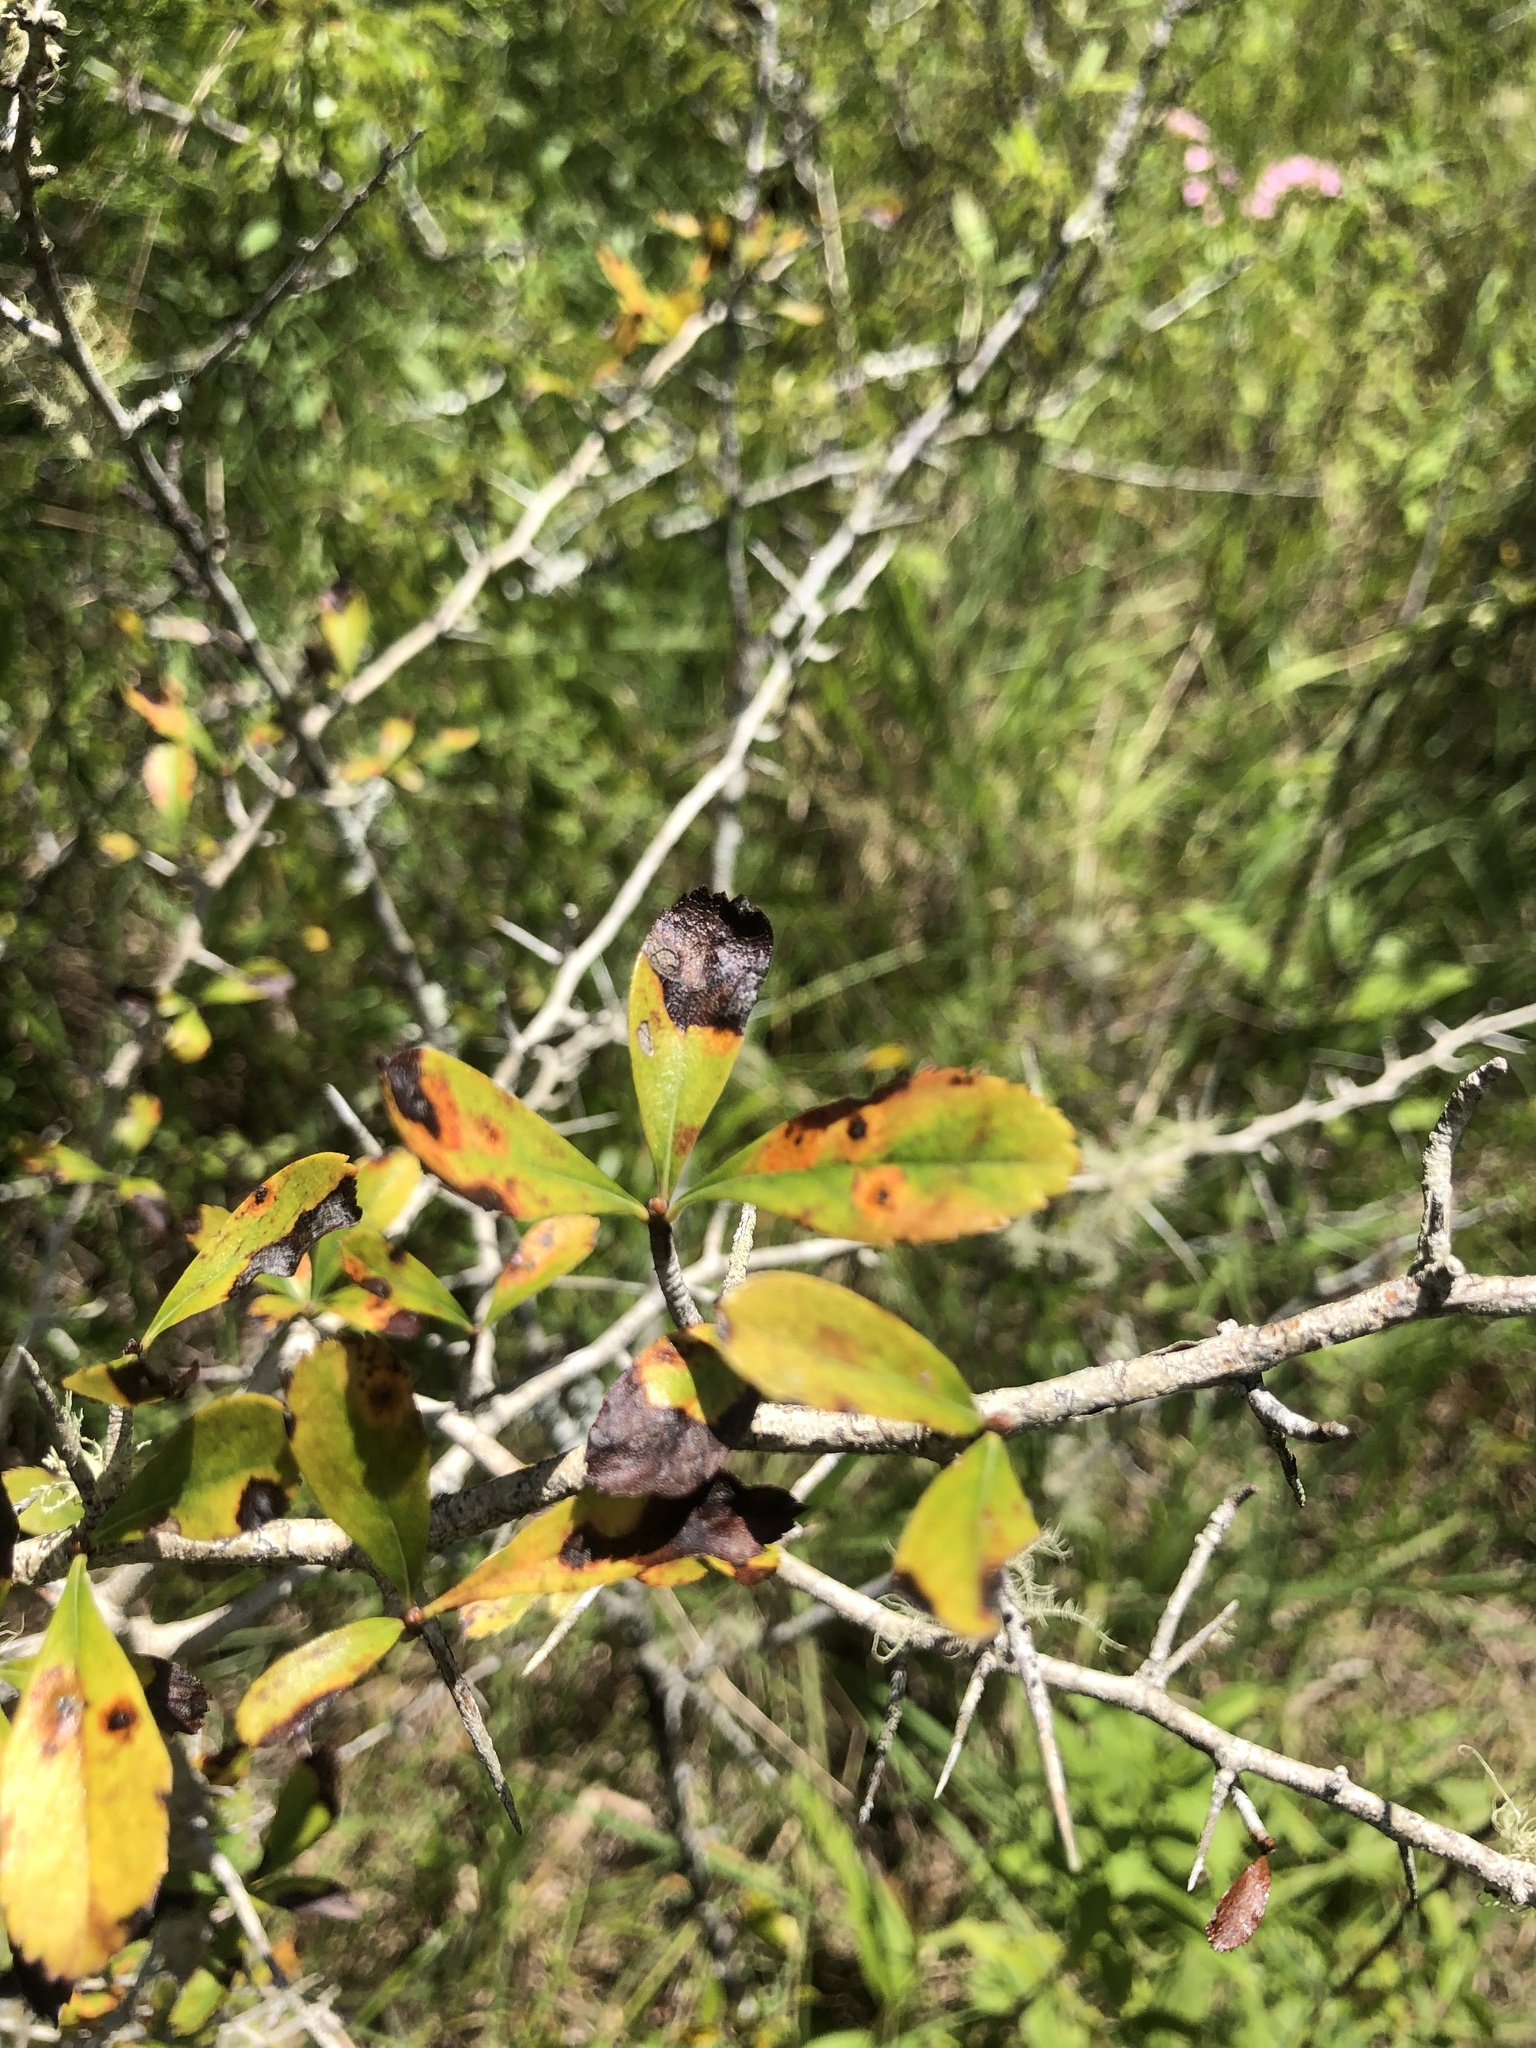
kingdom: Plantae
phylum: Tracheophyta
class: Magnoliopsida
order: Rosales
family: Rosaceae
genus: Crataegus
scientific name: Crataegus berberifolia
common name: Barberry hawthorn
